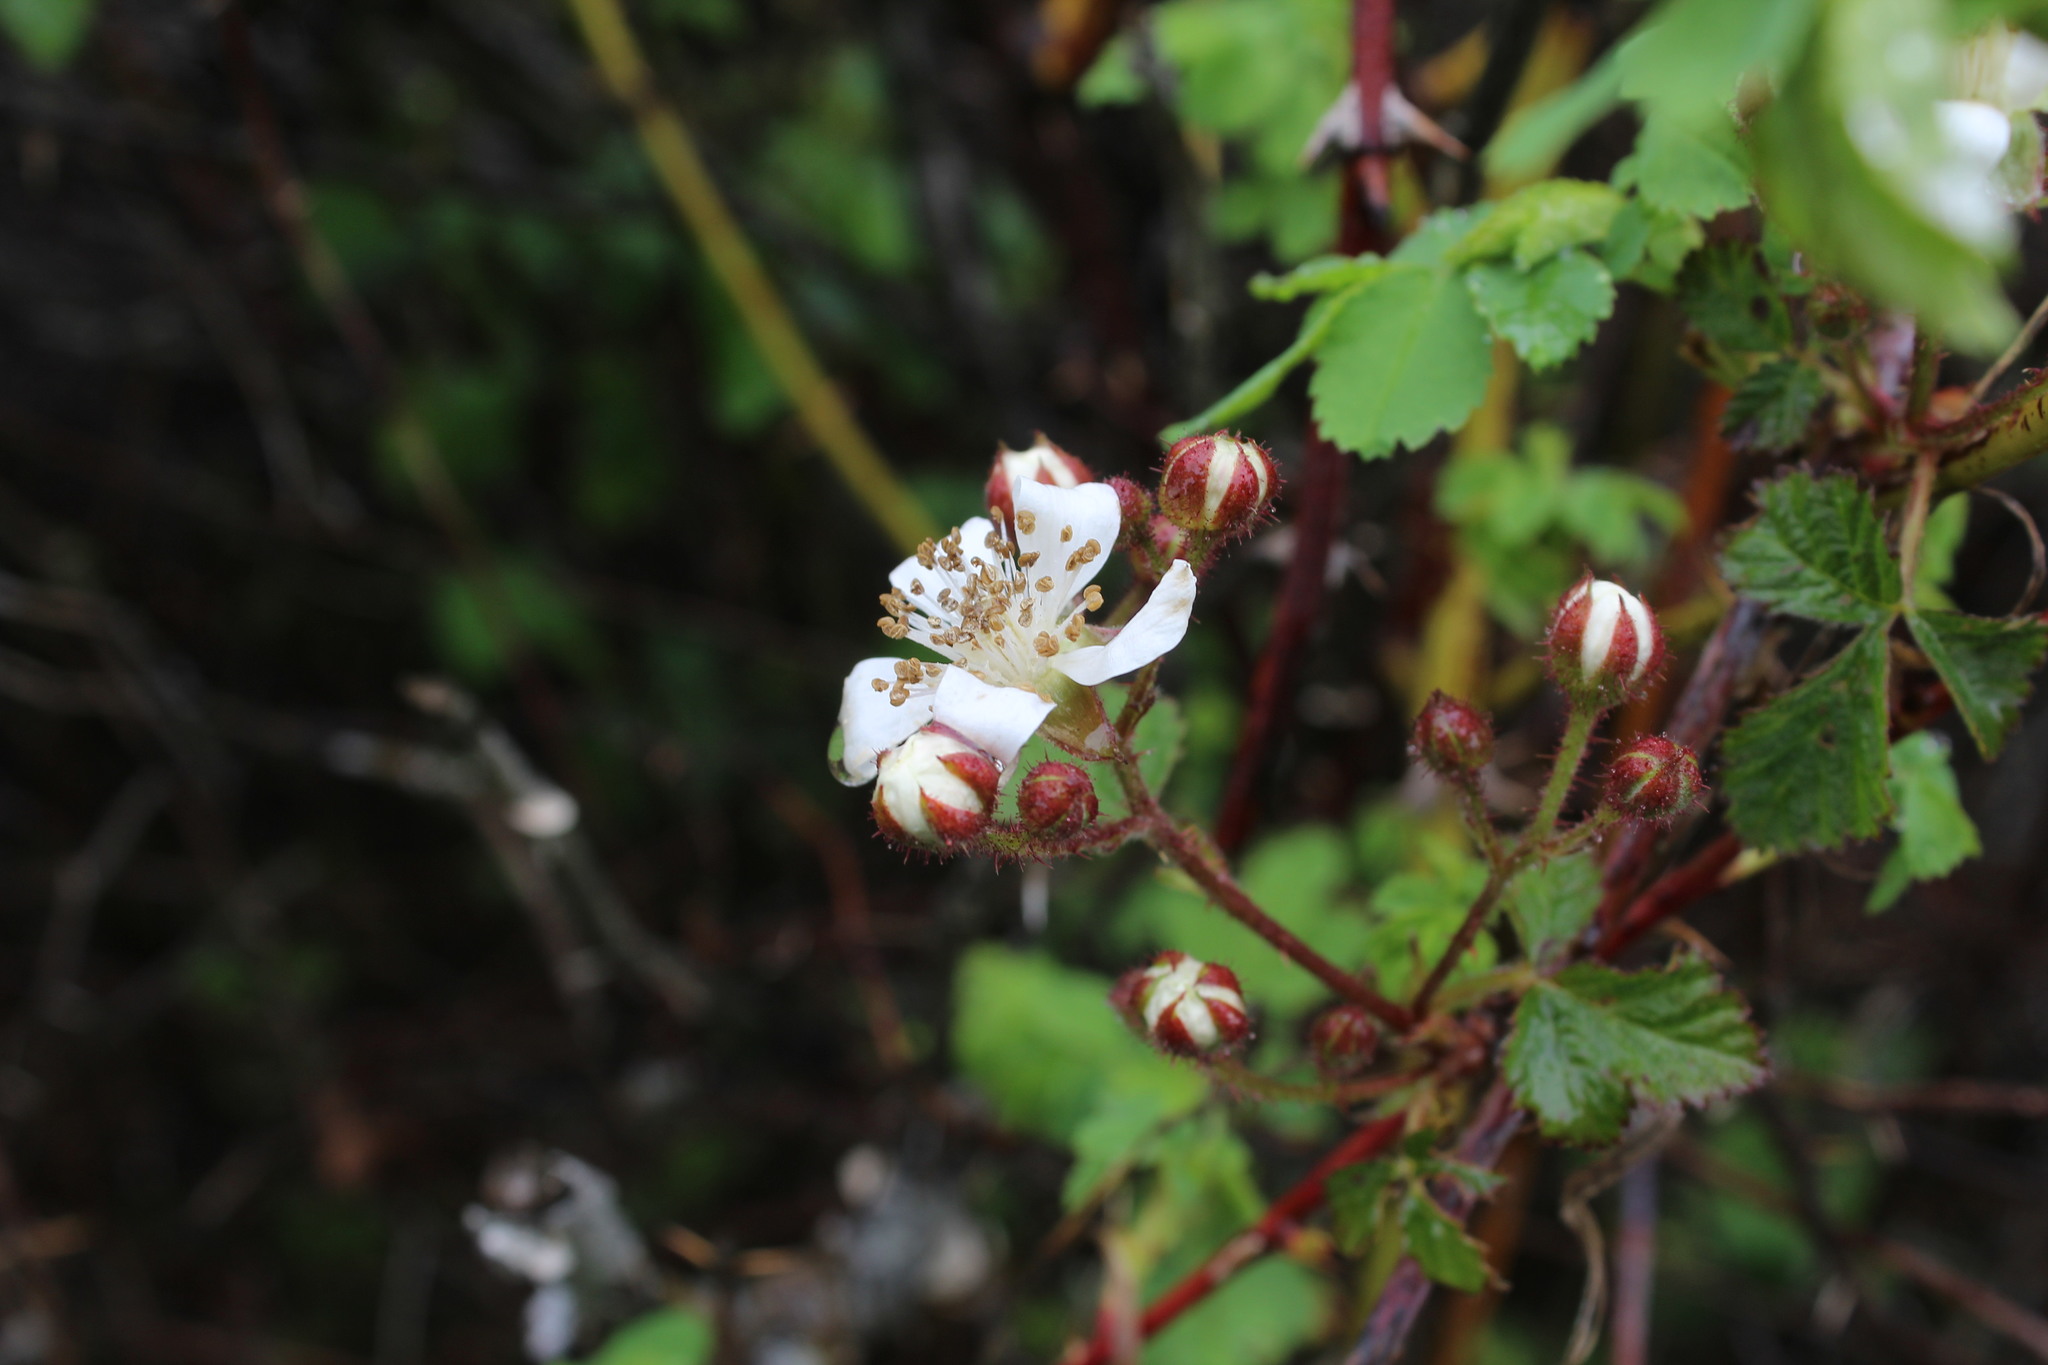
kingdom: Plantae
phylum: Tracheophyta
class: Magnoliopsida
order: Rosales
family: Rosaceae
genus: Rubus
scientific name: Rubus ursinus
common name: Pacific blackberry
